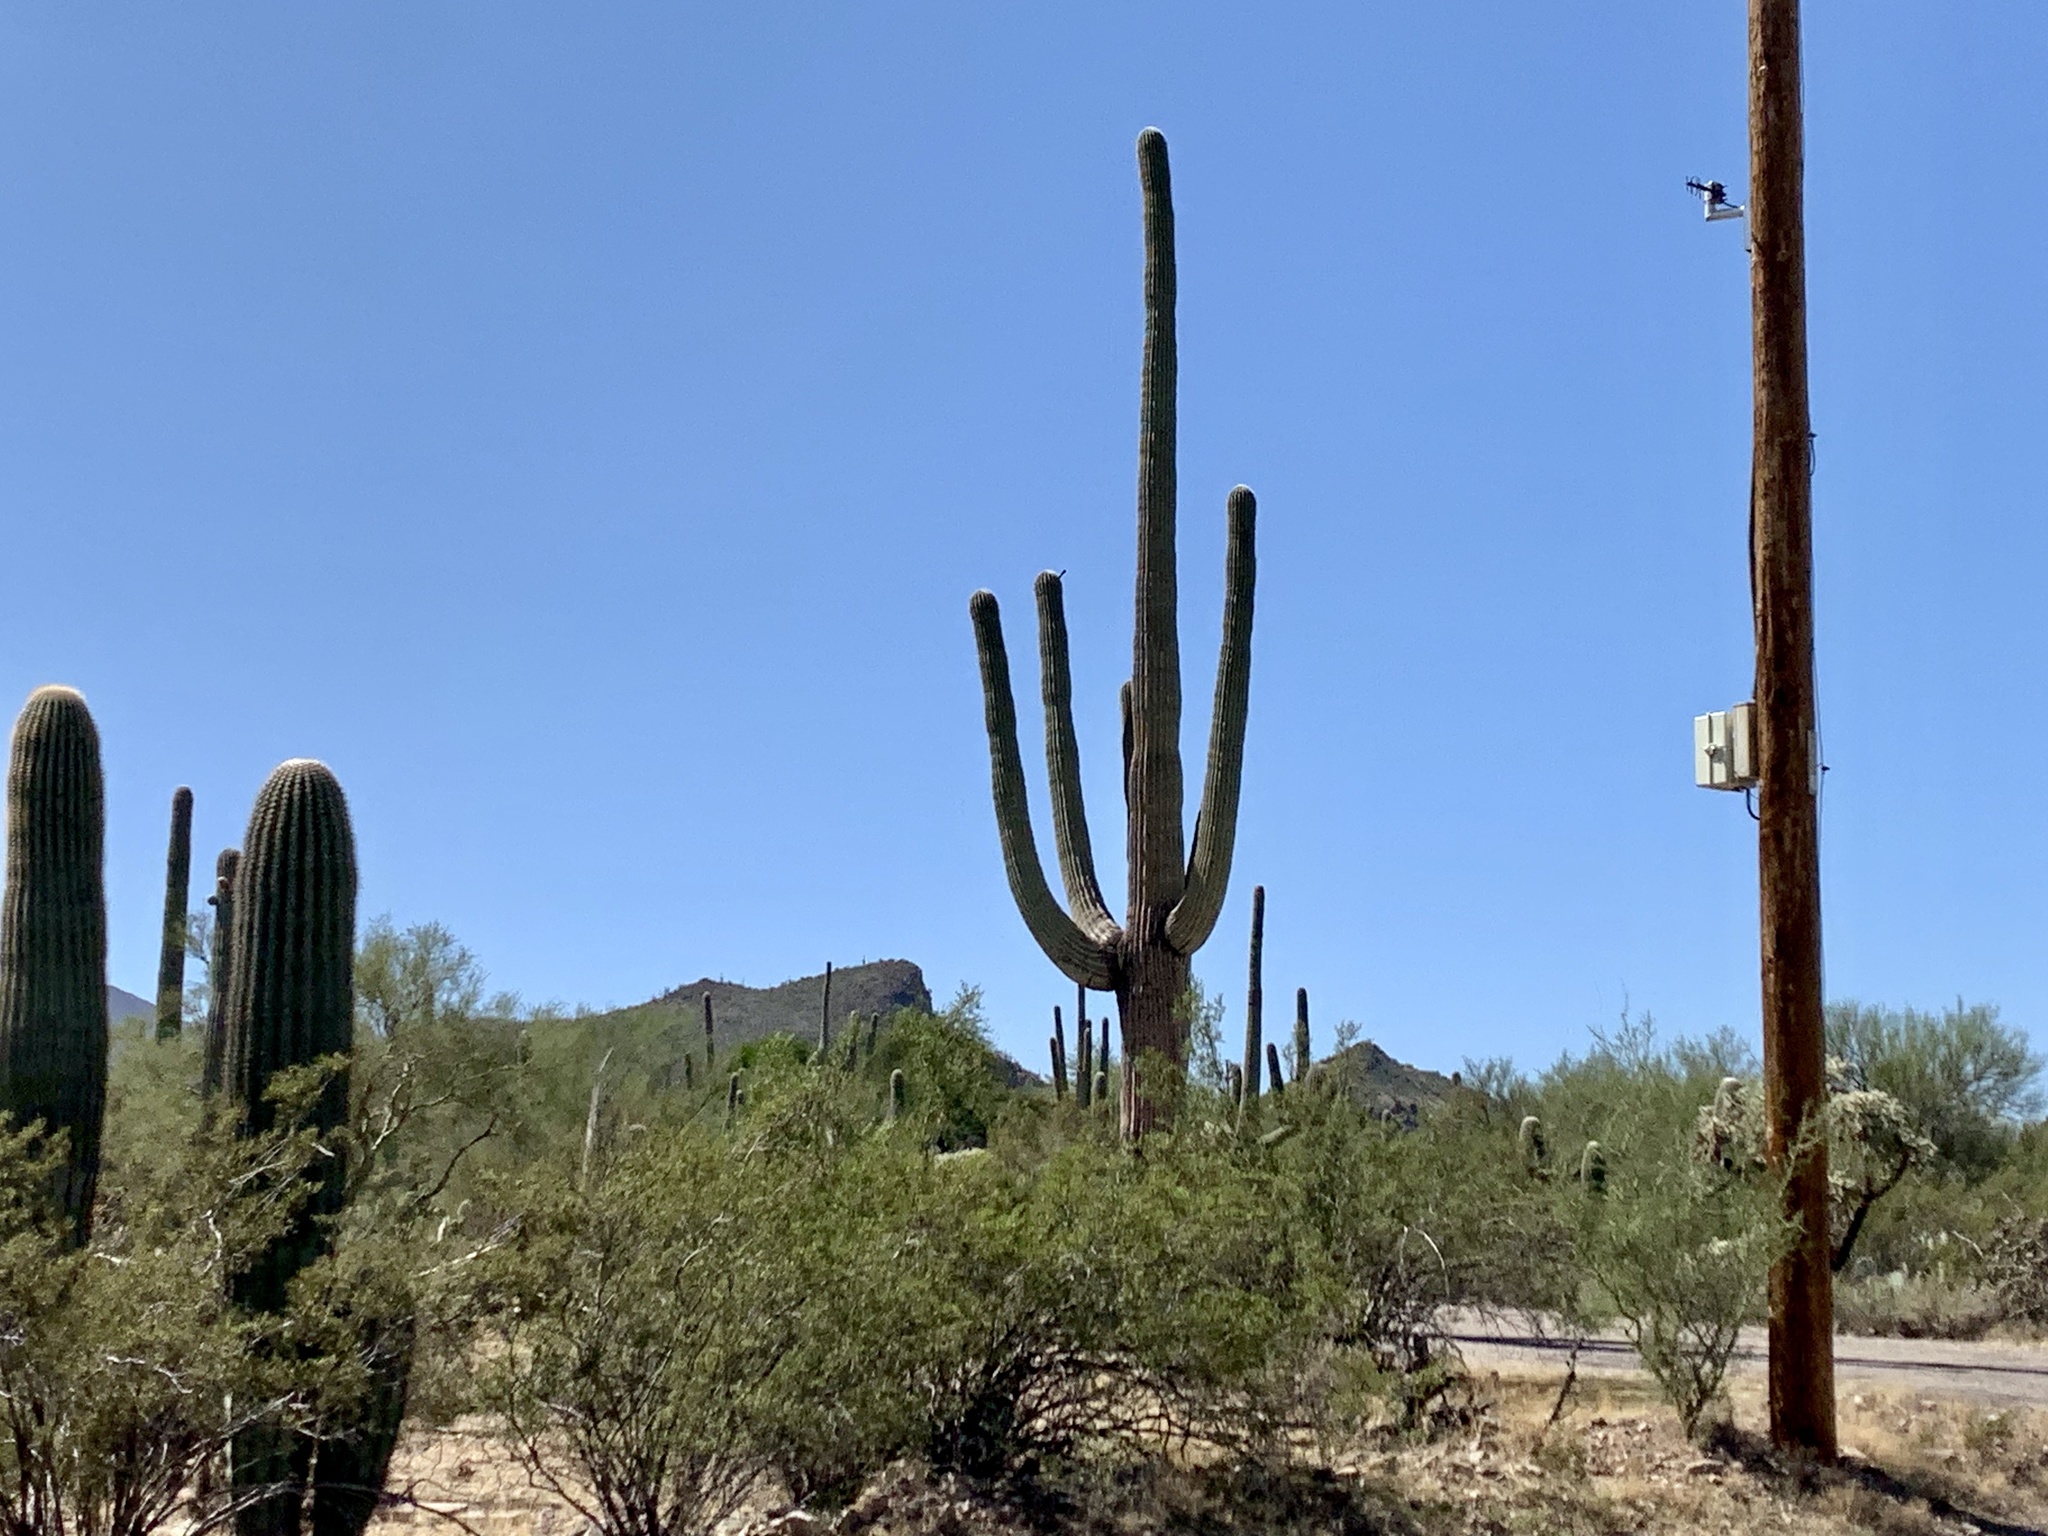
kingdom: Plantae
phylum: Tracheophyta
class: Magnoliopsida
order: Caryophyllales
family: Cactaceae
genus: Carnegiea
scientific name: Carnegiea gigantea
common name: Saguaro
